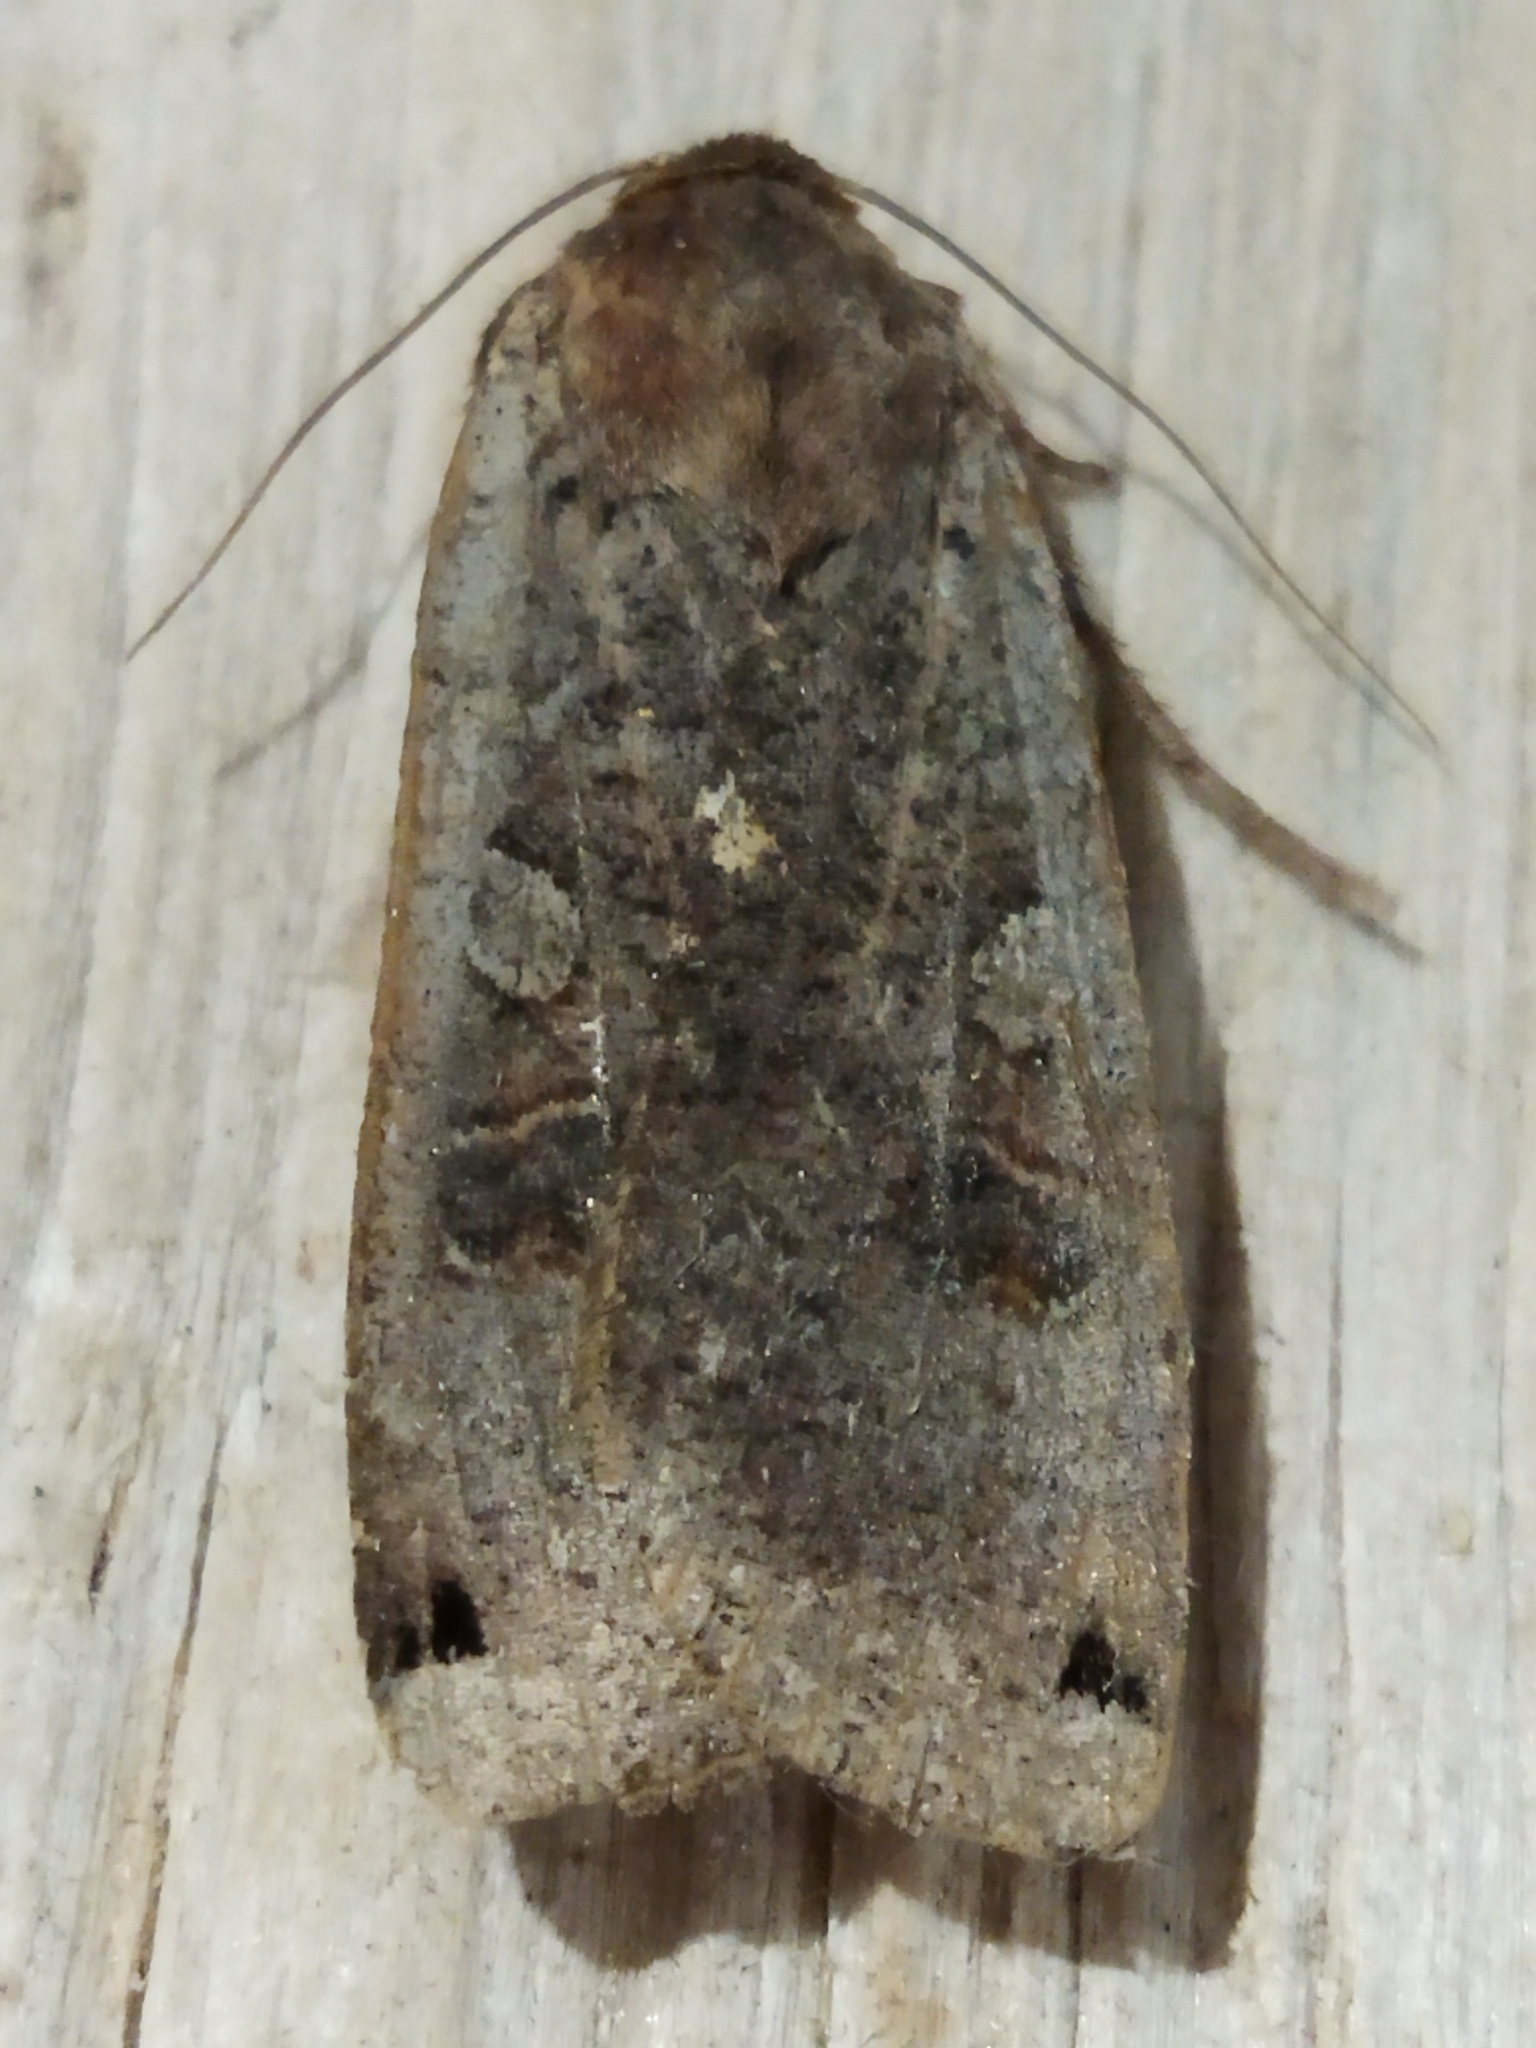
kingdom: Animalia
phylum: Arthropoda
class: Insecta
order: Lepidoptera
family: Noctuidae
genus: Noctua
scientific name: Noctua pronuba
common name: Large yellow underwing
